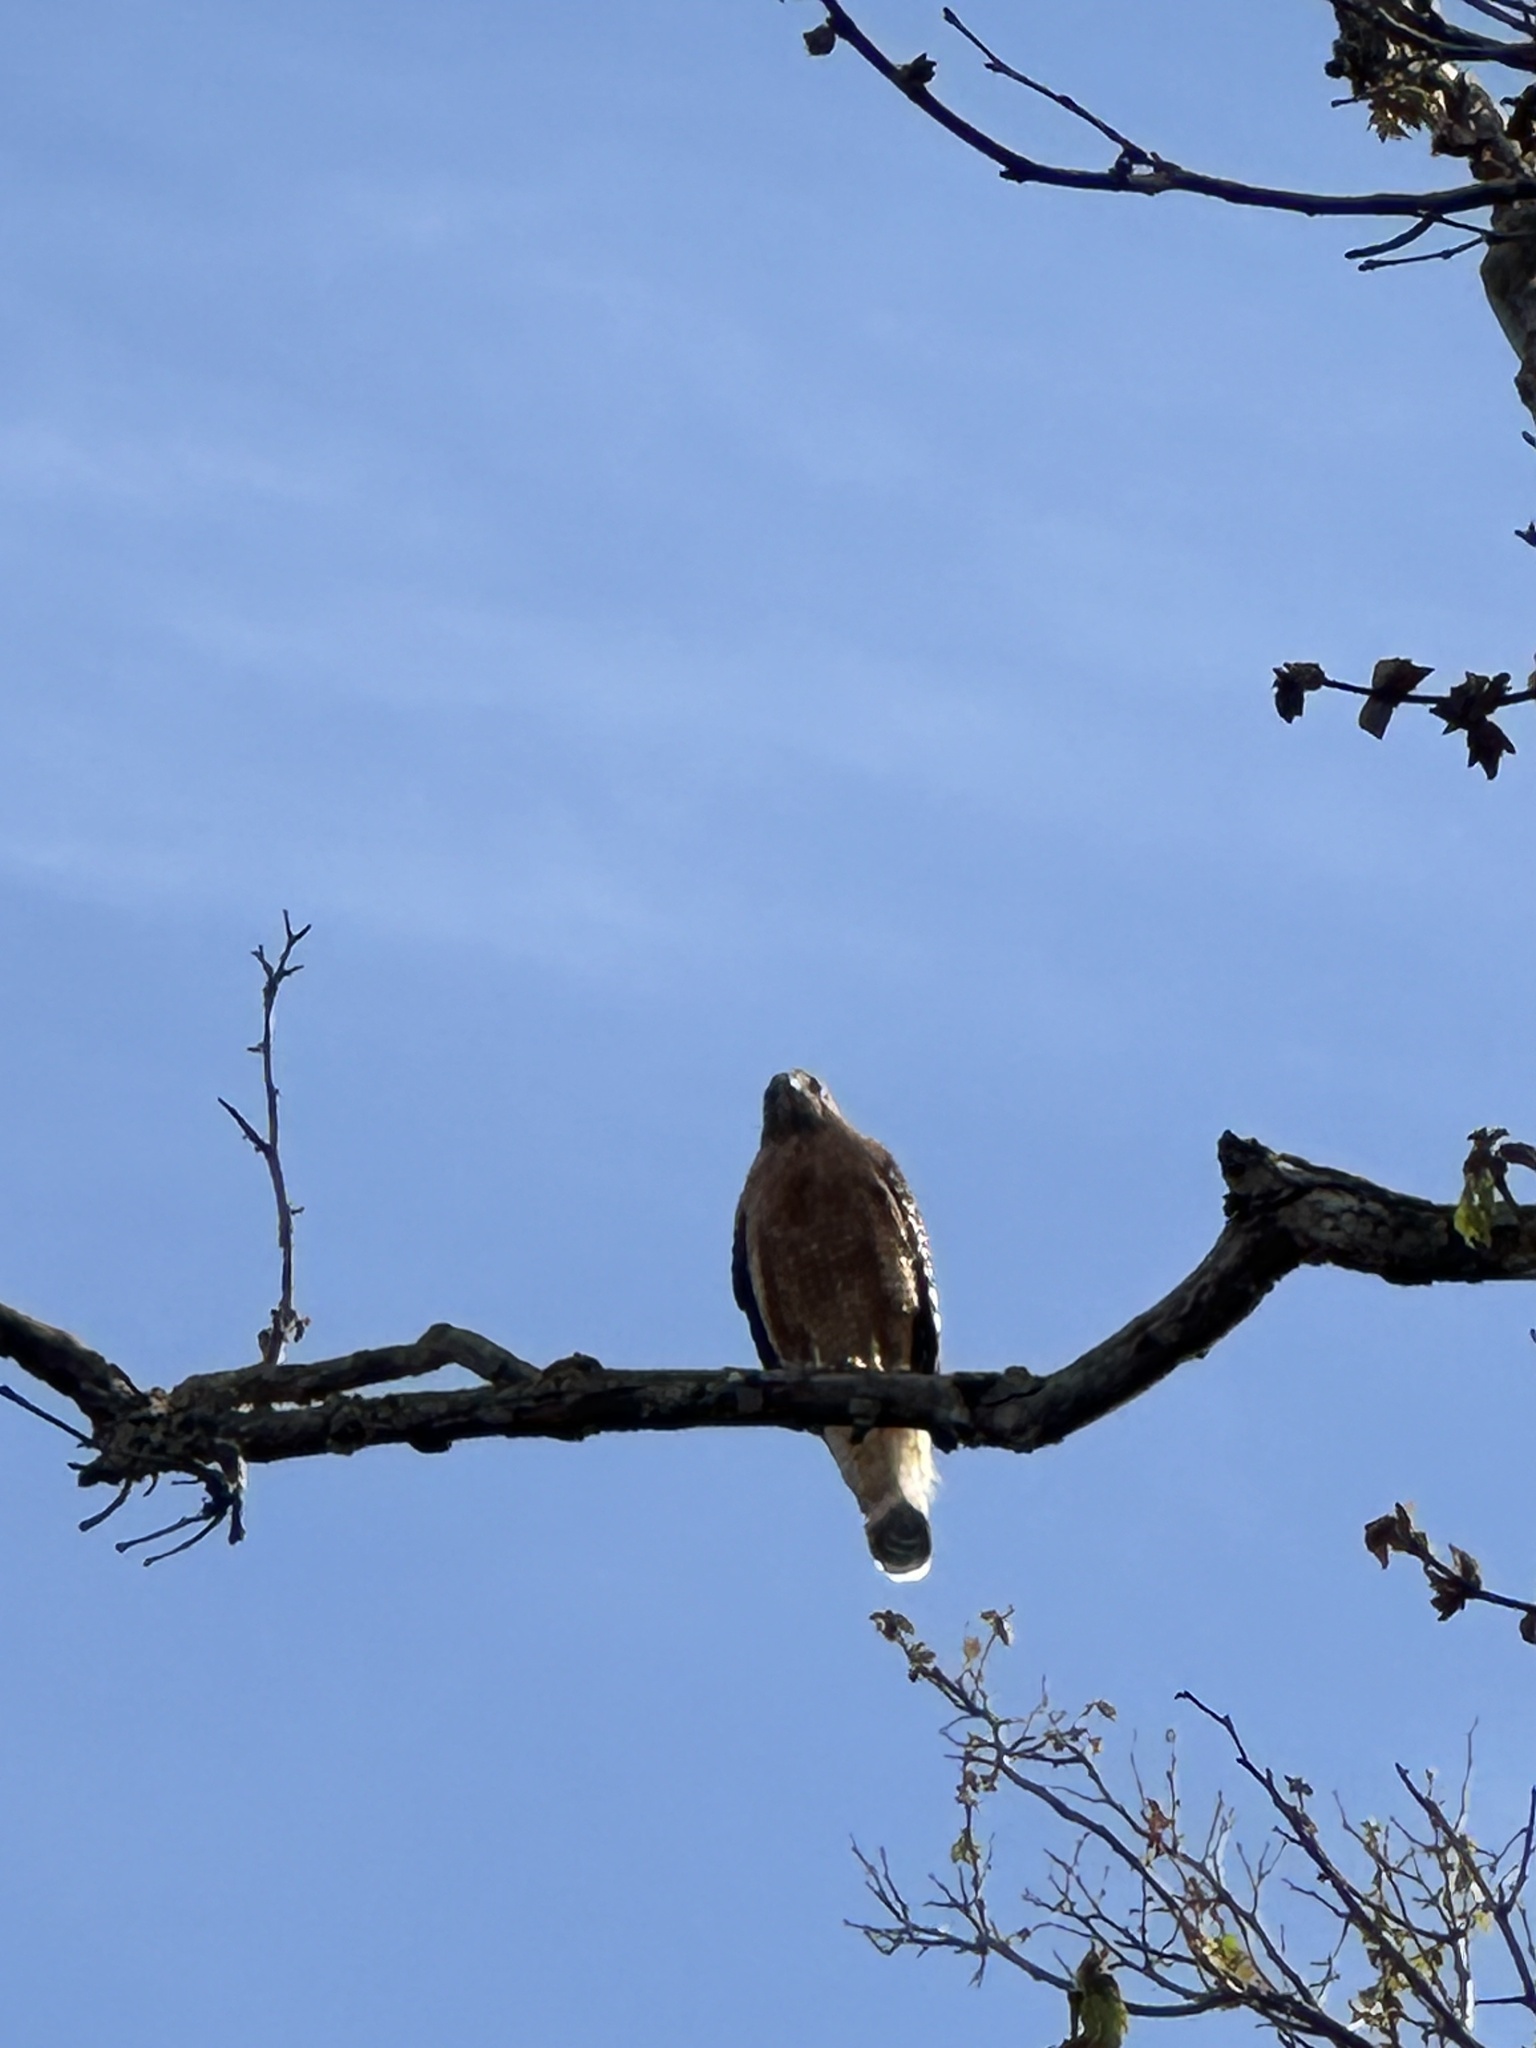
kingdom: Animalia
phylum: Chordata
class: Aves
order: Accipitriformes
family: Accipitridae
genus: Buteo
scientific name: Buteo lineatus
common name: Red-shouldered hawk
